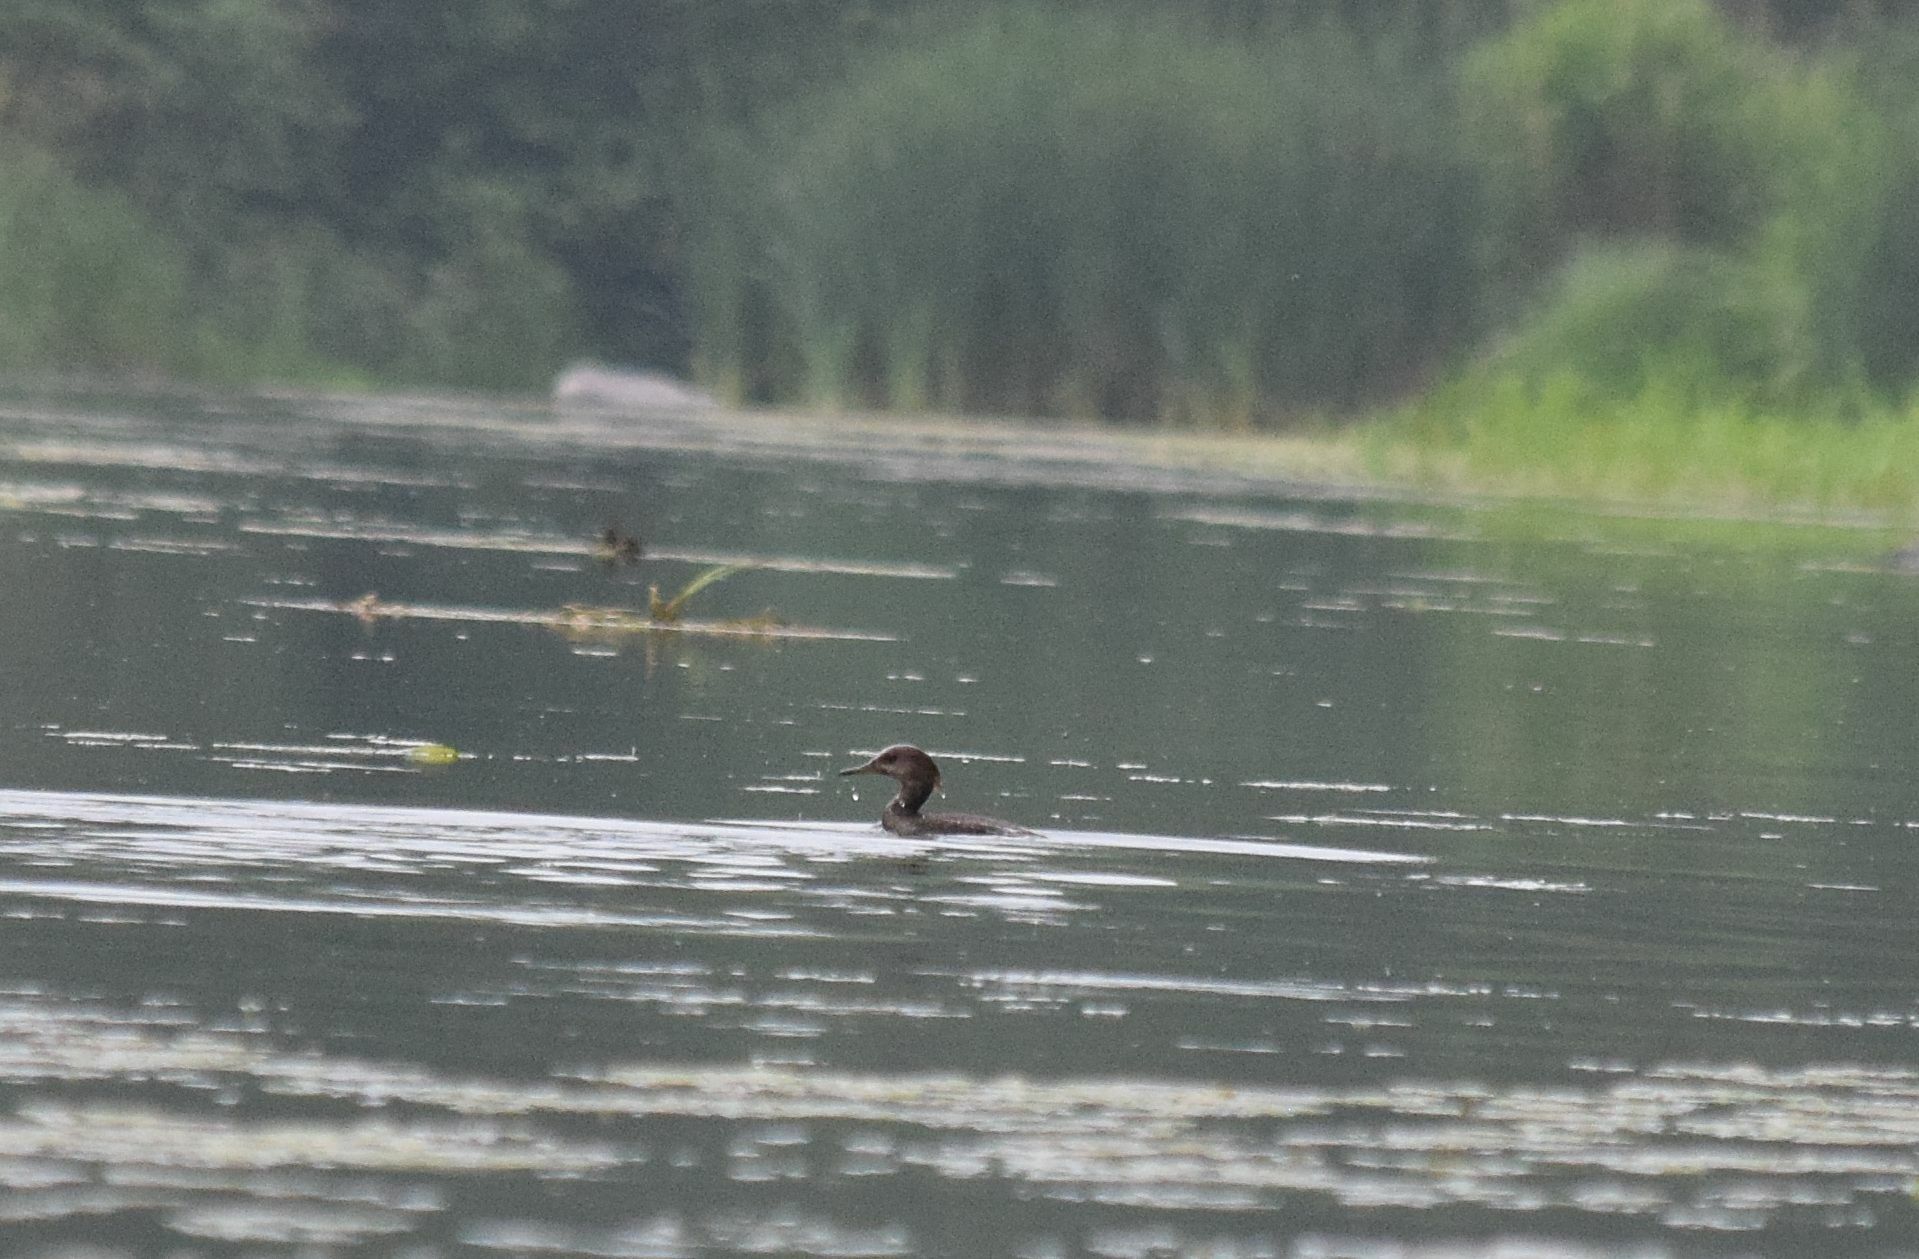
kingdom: Animalia
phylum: Chordata
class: Aves
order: Anseriformes
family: Anatidae
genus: Lophodytes
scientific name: Lophodytes cucullatus
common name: Hooded merganser
